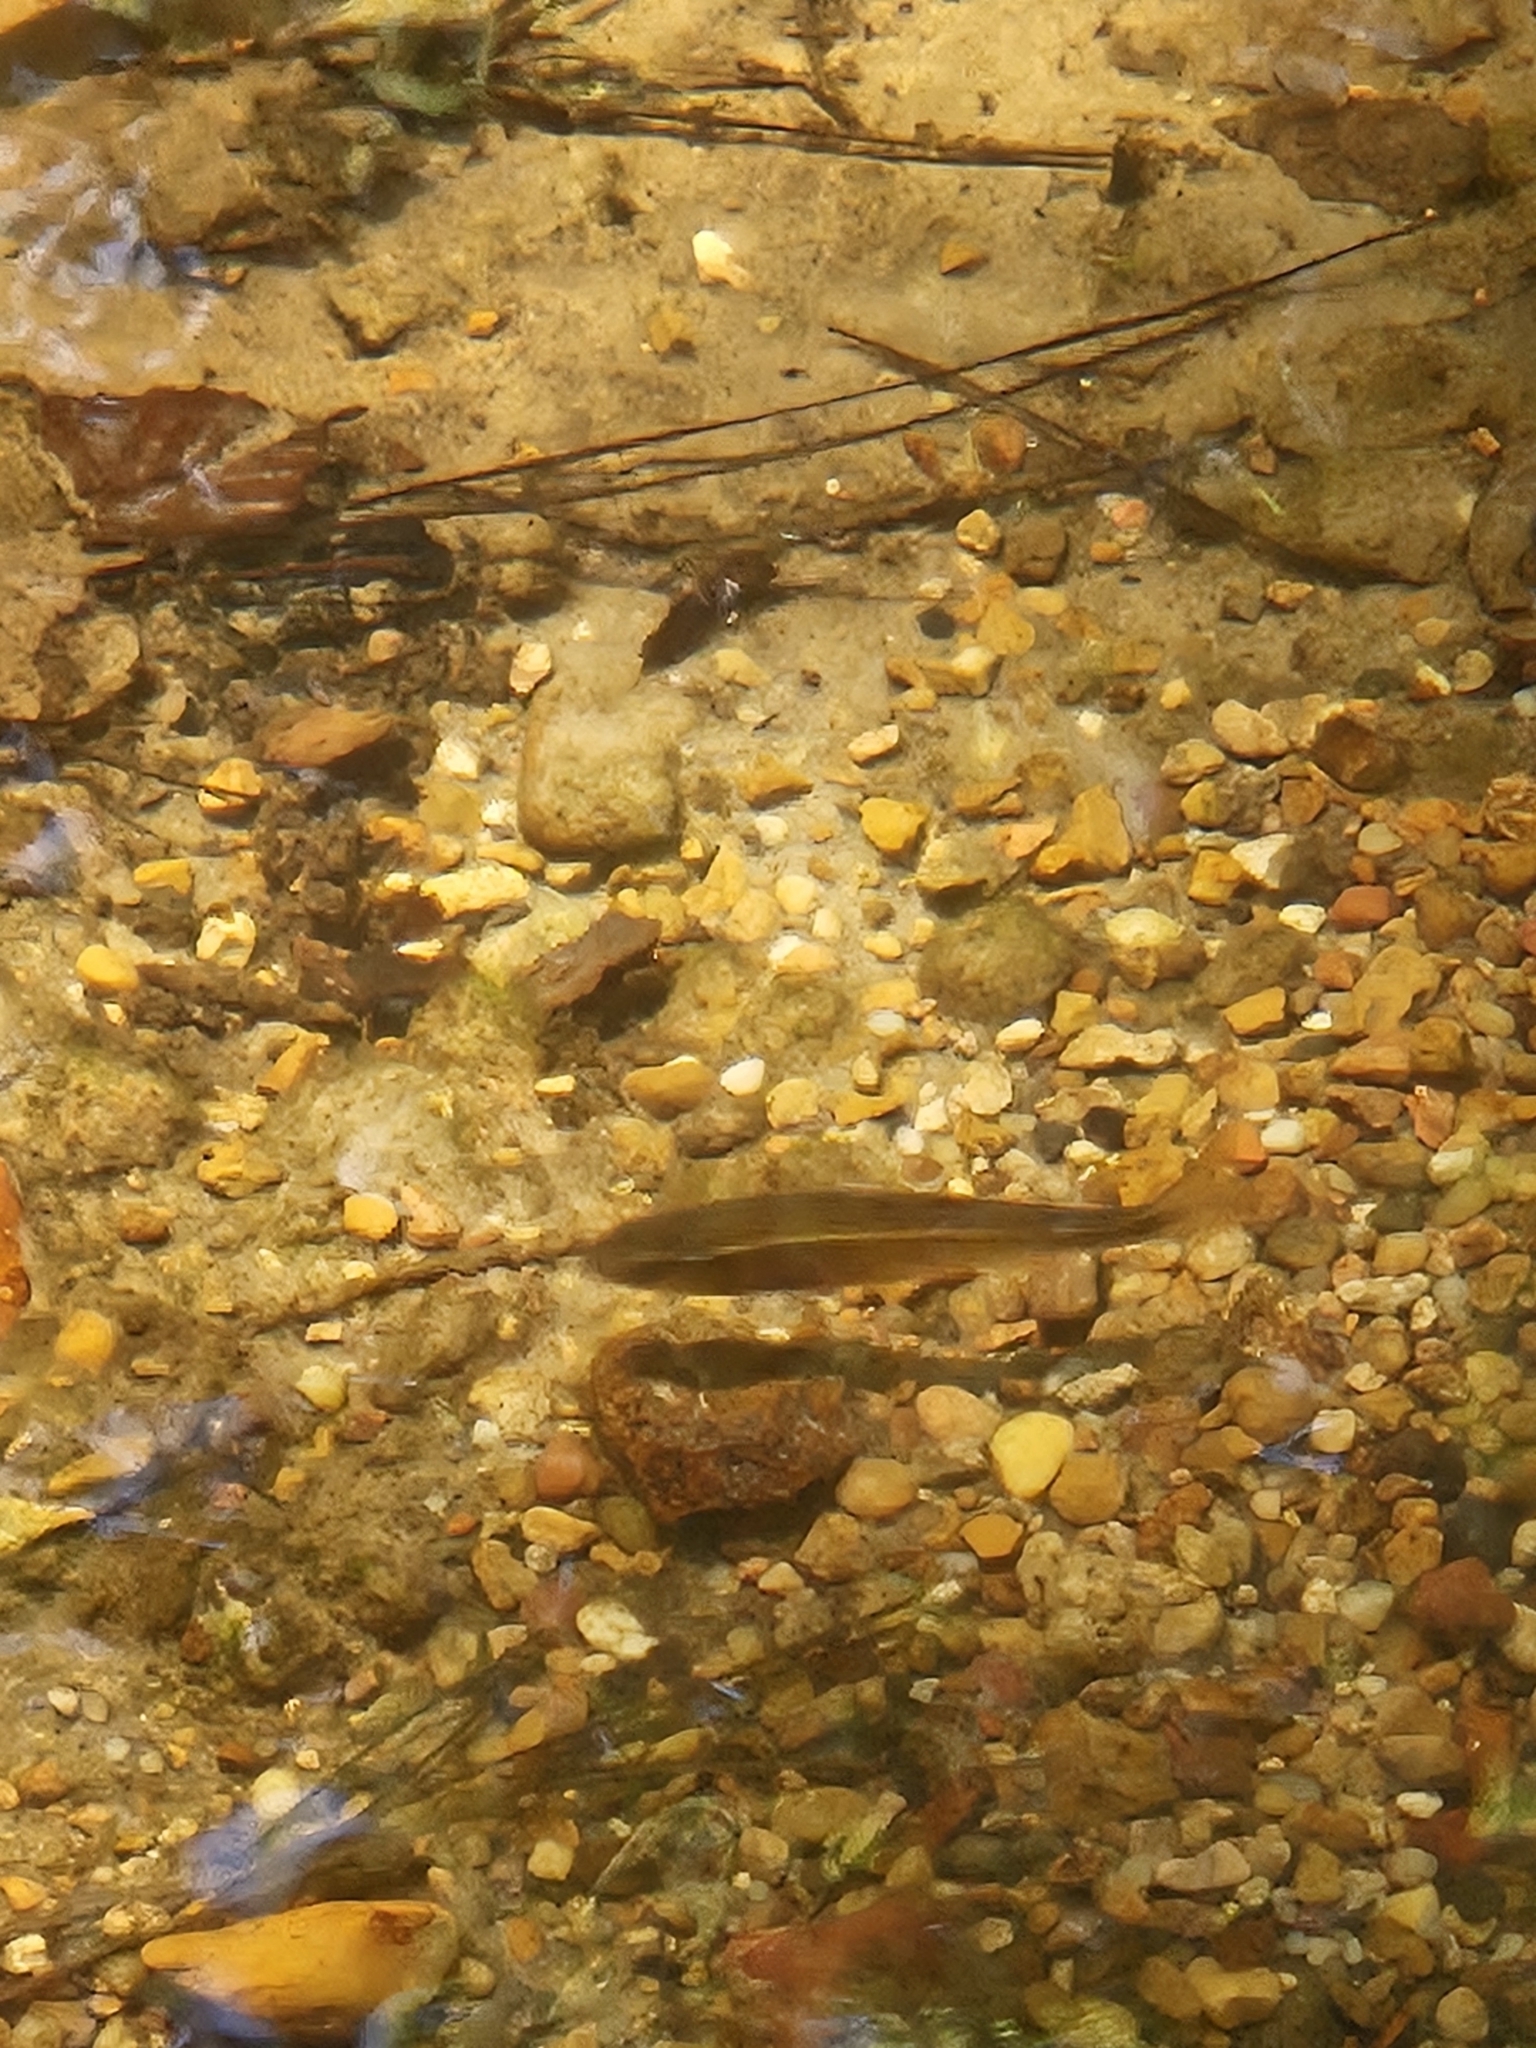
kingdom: Animalia
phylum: Chordata
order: Cypriniformes
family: Cyprinidae
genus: Luxilus
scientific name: Luxilus chrysocephalus
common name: Striped shiner
